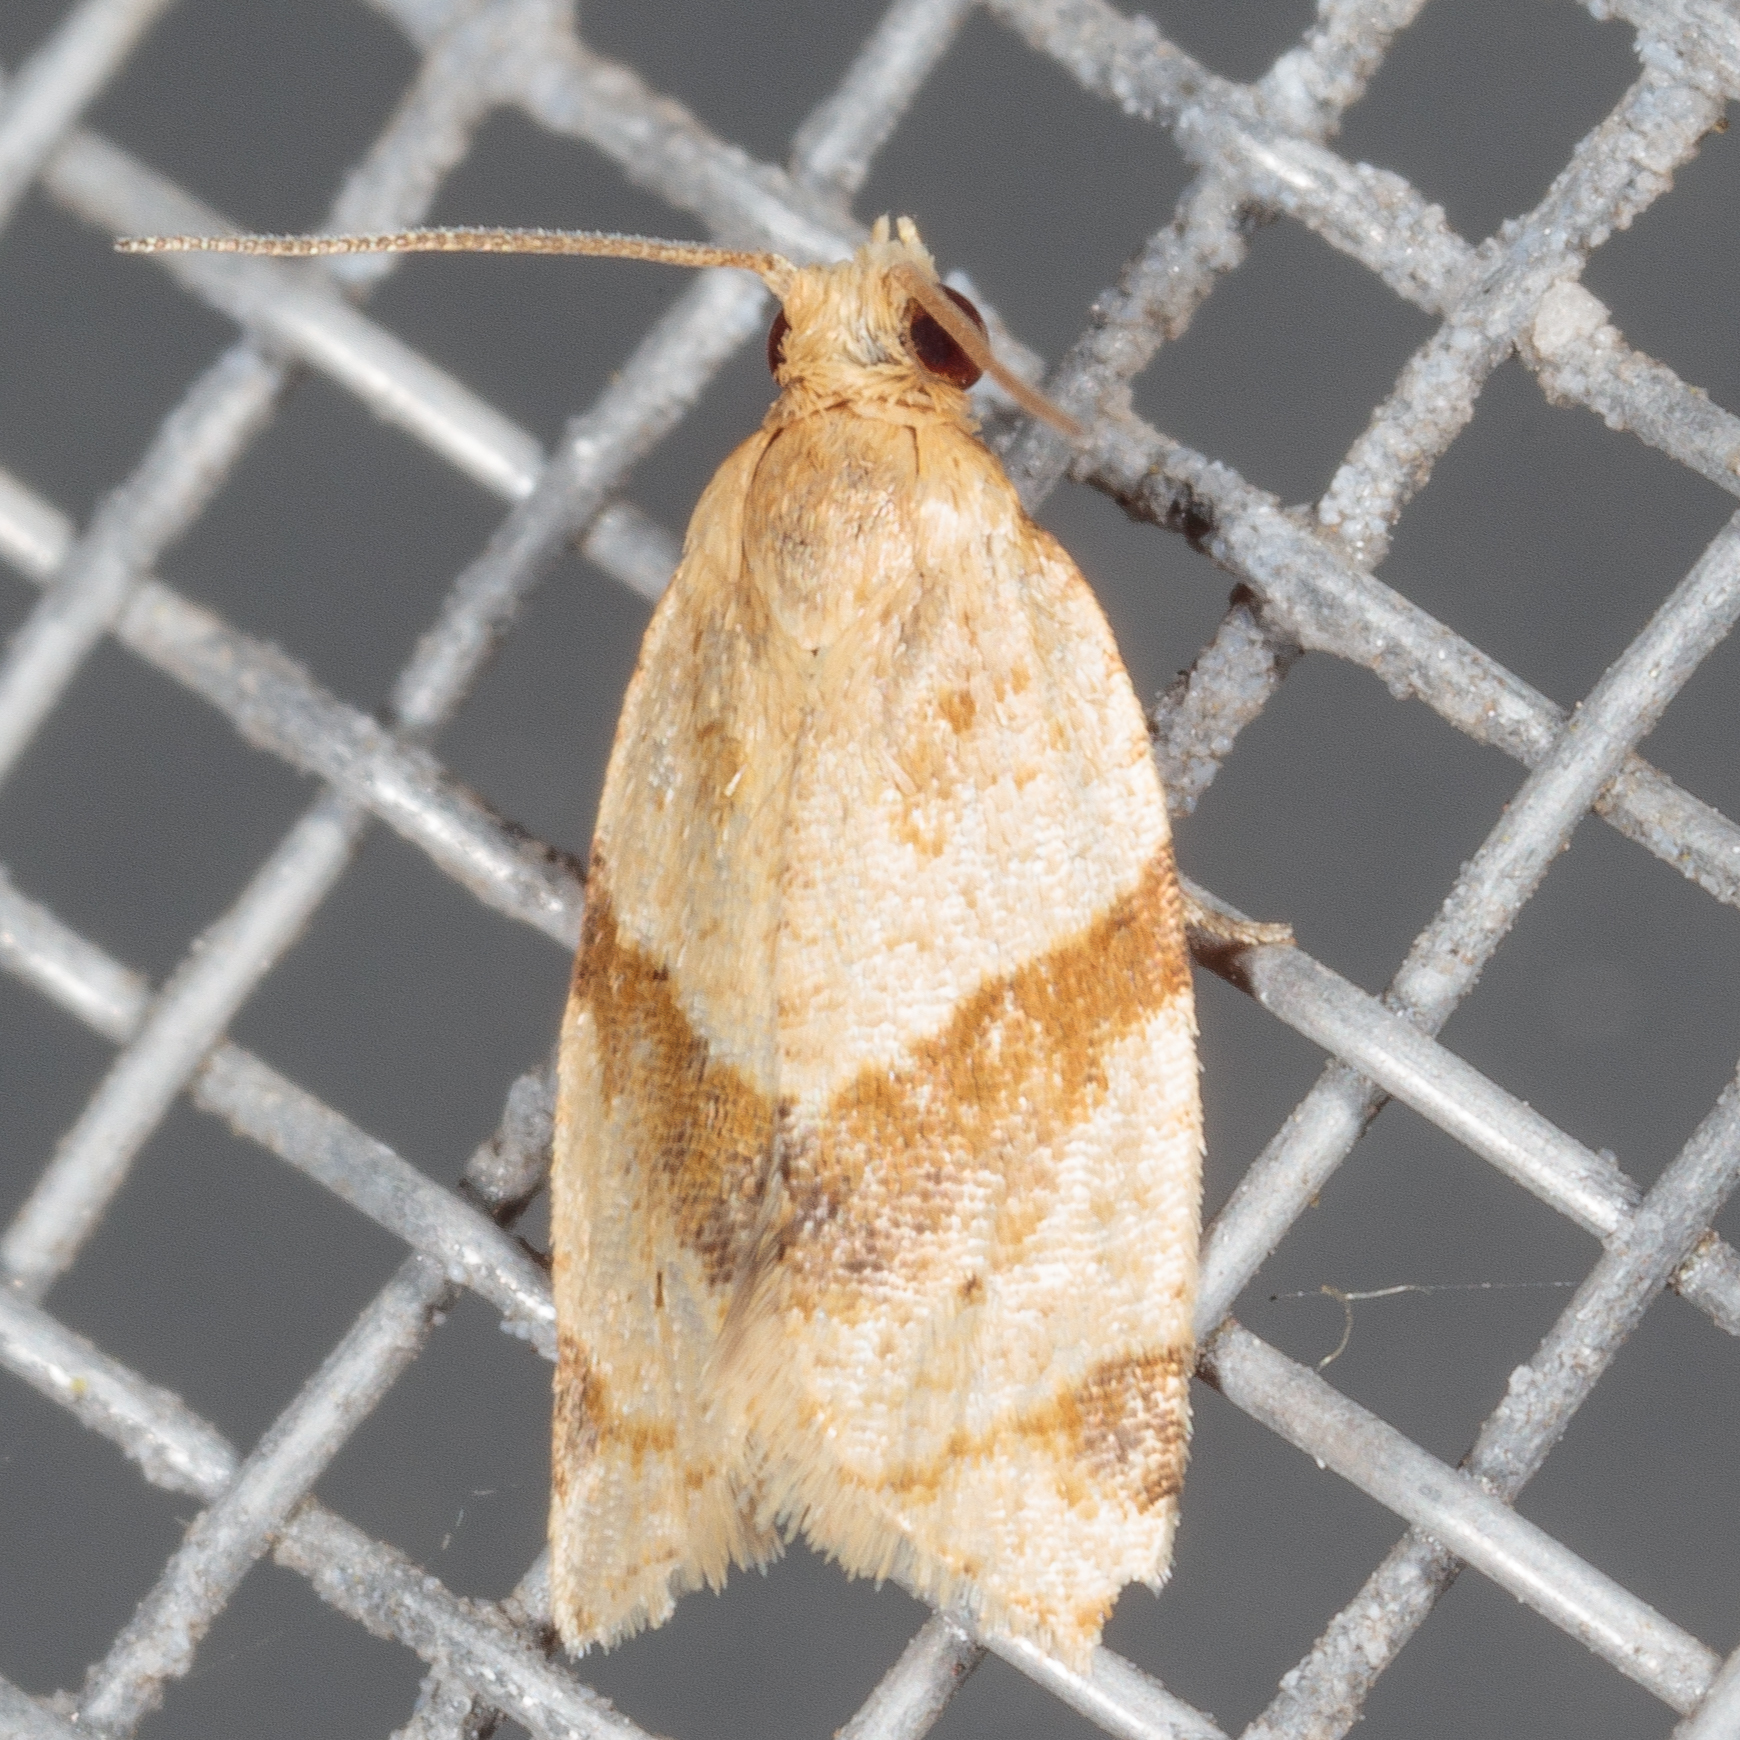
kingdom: Animalia
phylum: Arthropoda
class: Insecta
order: Lepidoptera
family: Tortricidae
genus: Clepsis
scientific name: Clepsis peritana
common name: Garden tortrix
